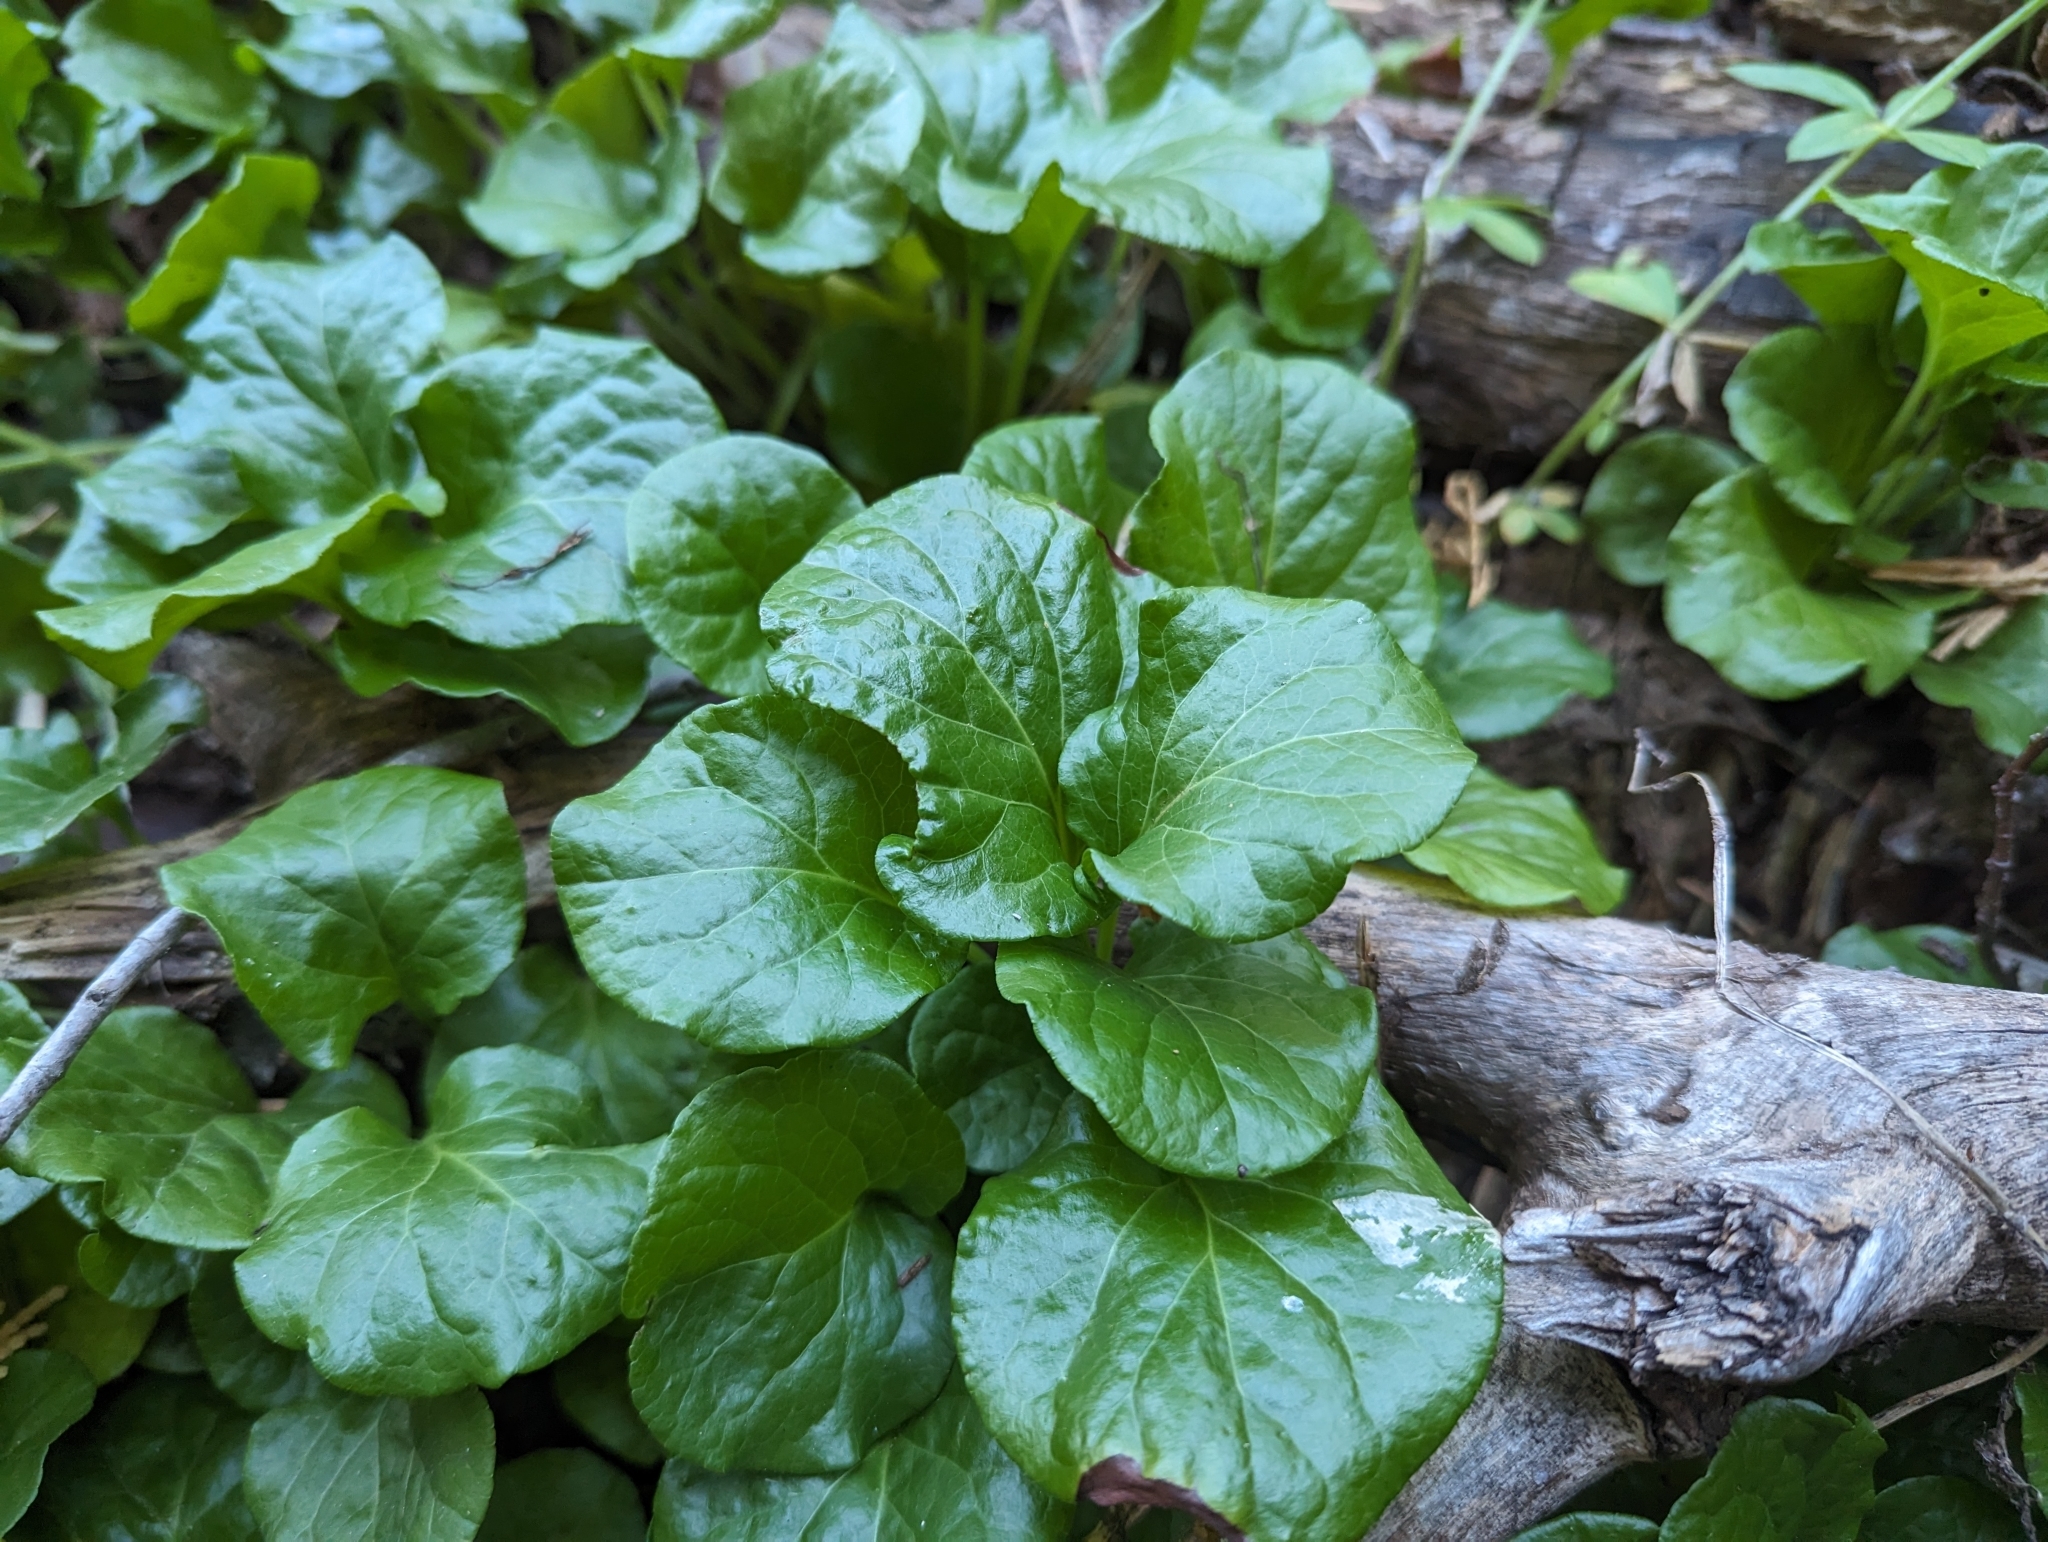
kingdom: Plantae
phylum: Tracheophyta
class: Magnoliopsida
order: Ericales
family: Ericaceae
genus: Pyrola
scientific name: Pyrola asarifolia
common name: Bog wintergreen
